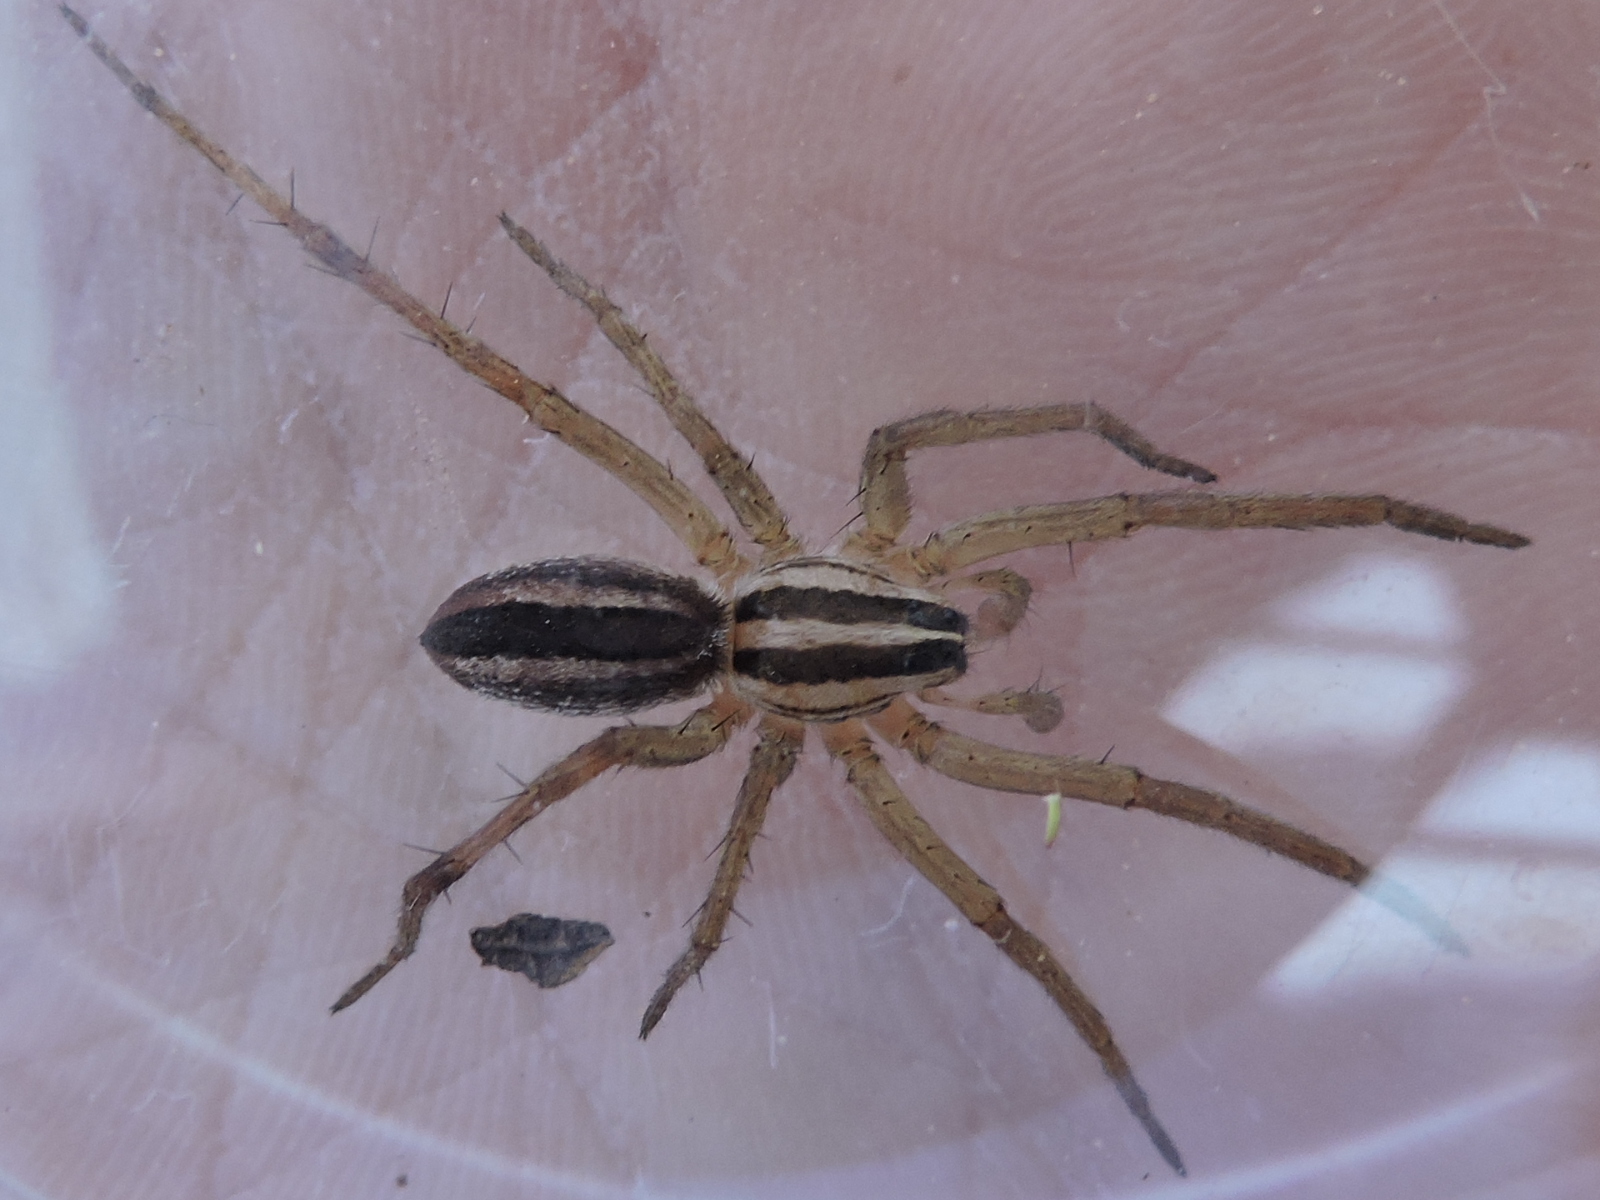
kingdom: Animalia
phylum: Arthropoda
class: Arachnida
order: Araneae
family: Lycosidae
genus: Rabidosa
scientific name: Rabidosa punctulata
